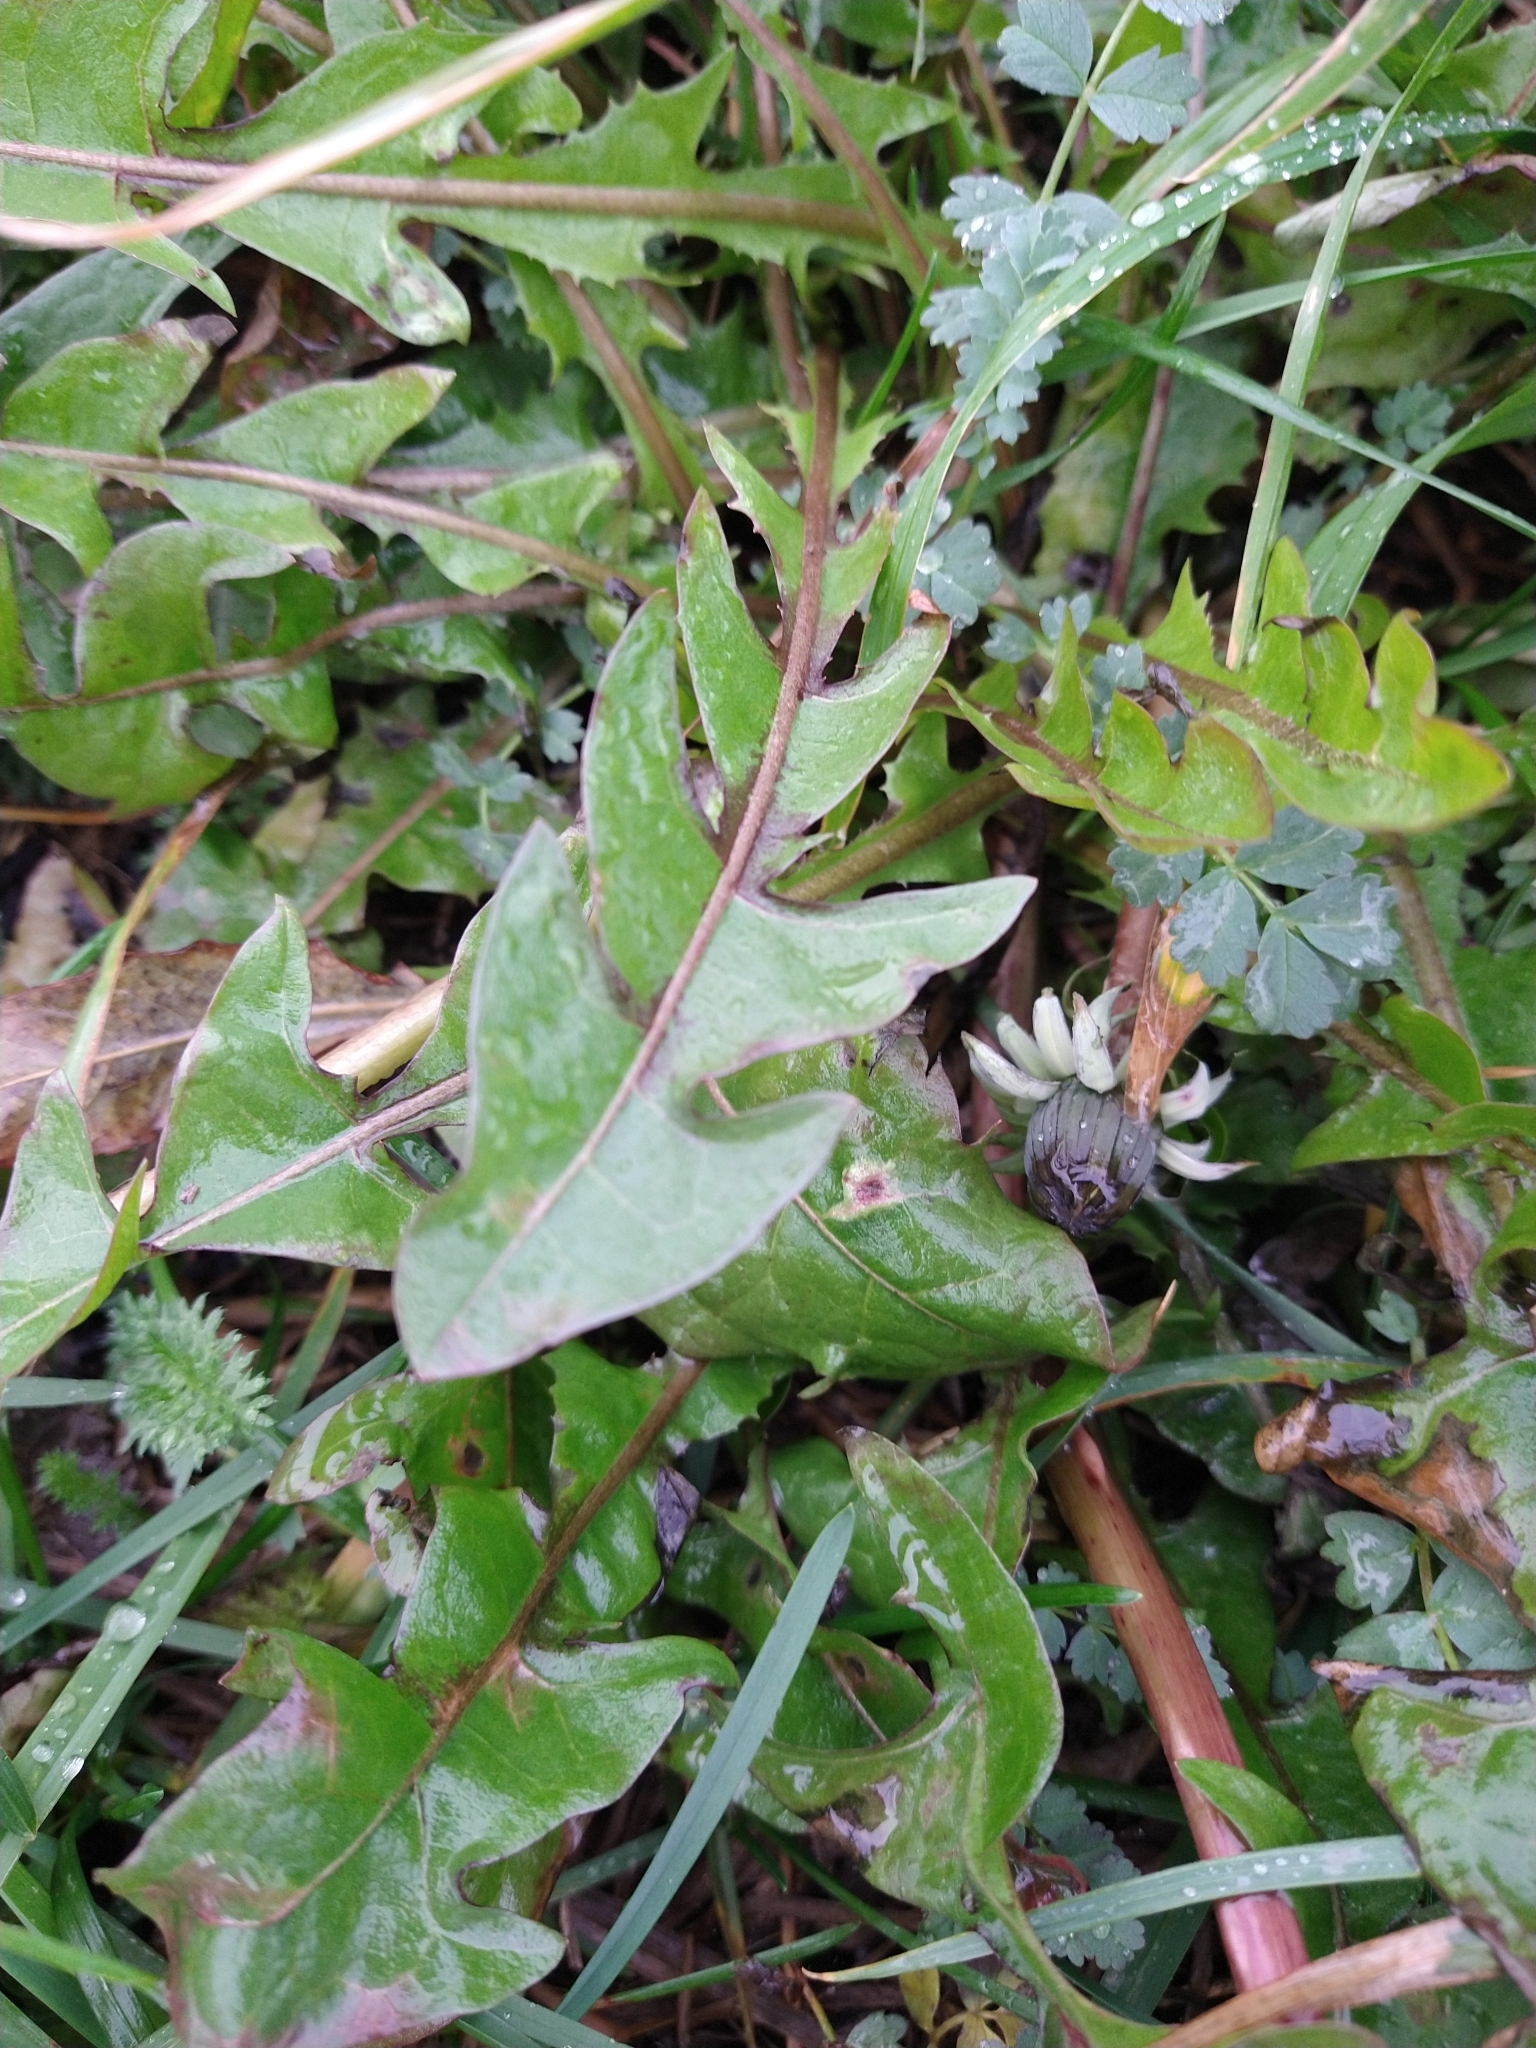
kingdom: Plantae
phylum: Tracheophyta
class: Magnoliopsida
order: Asterales
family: Asteraceae
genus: Taraxacum
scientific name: Taraxacum officinale
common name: Common dandelion
